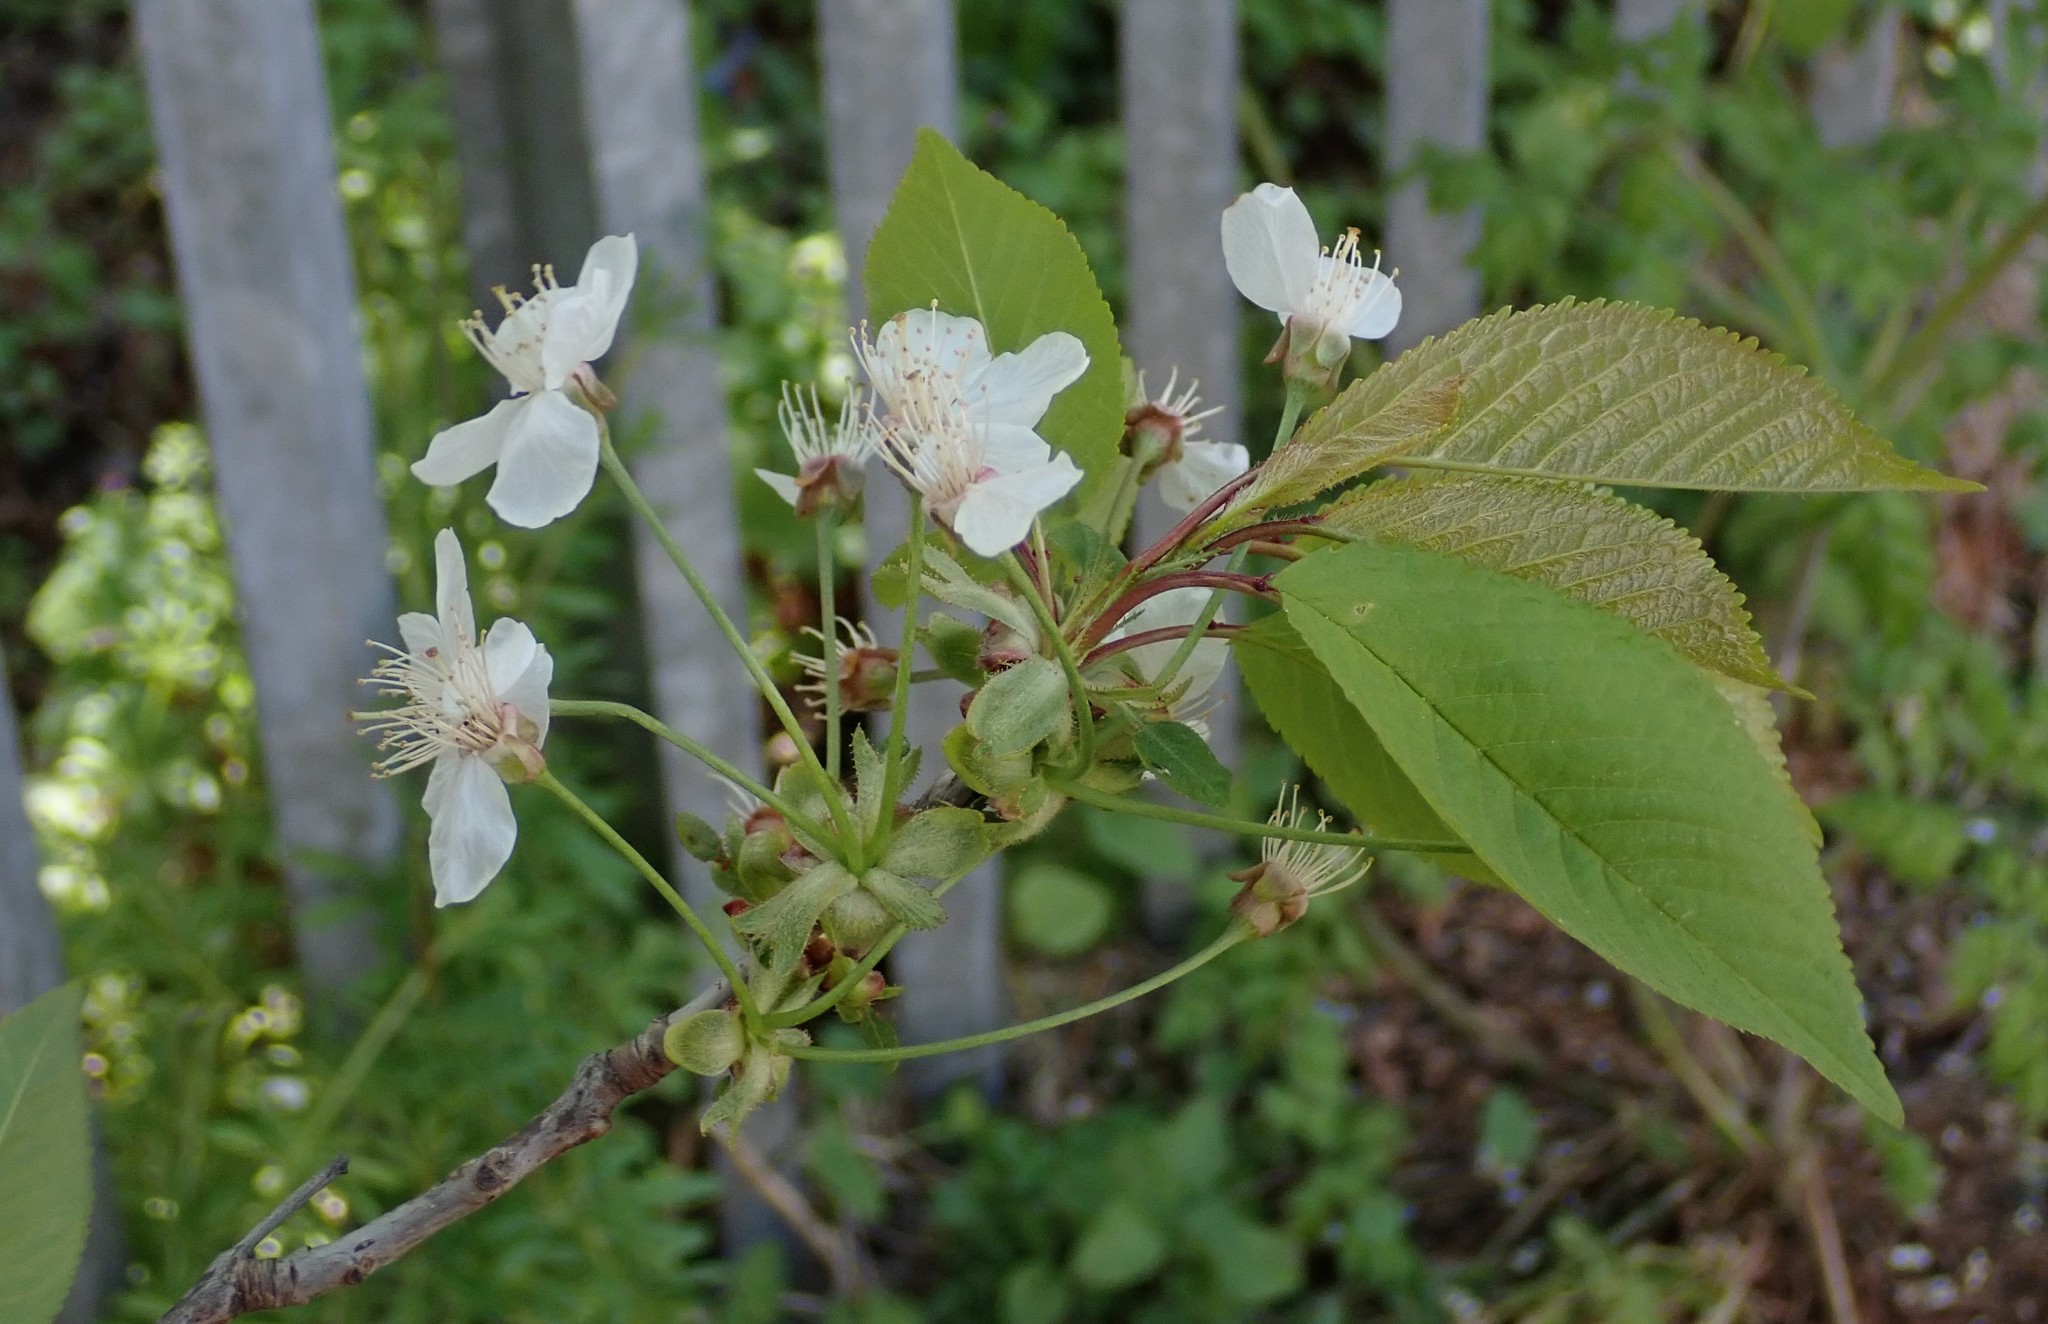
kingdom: Plantae
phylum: Tracheophyta
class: Magnoliopsida
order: Rosales
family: Rosaceae
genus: Prunus
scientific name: Prunus avium
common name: Sweet cherry
